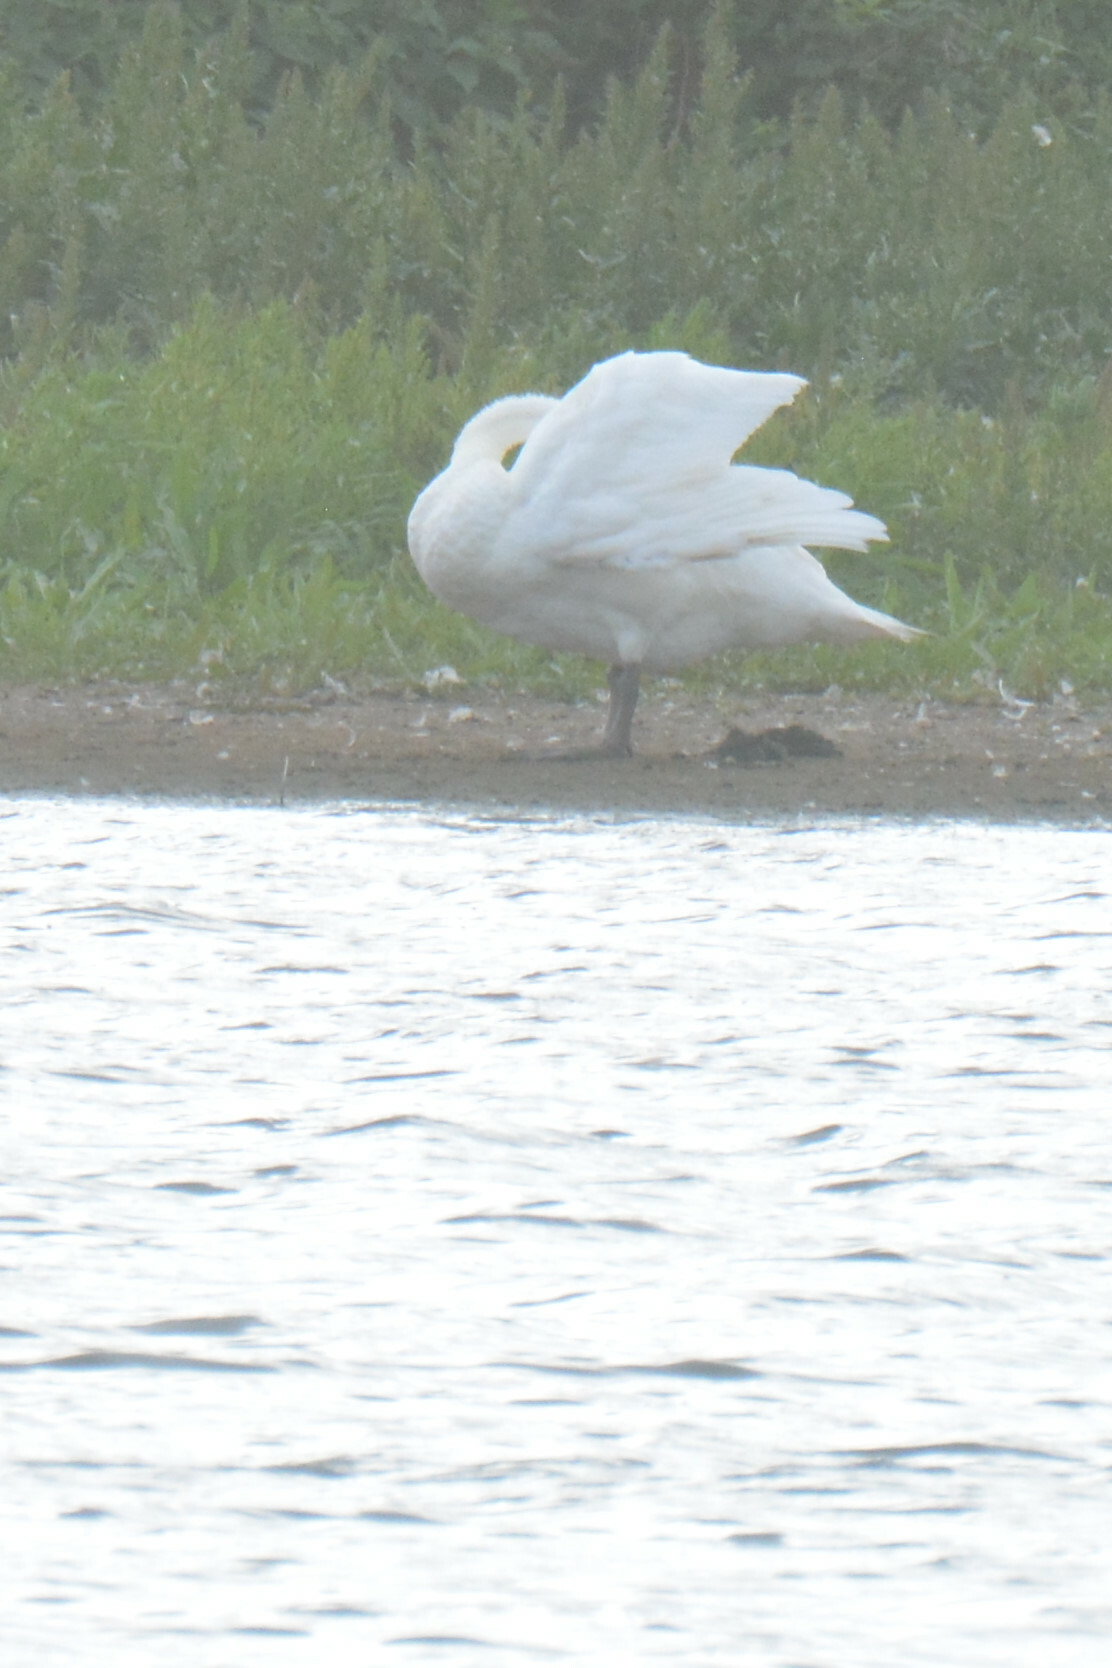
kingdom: Animalia
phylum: Chordata
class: Aves
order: Anseriformes
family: Anatidae
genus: Cygnus
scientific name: Cygnus olor
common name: Mute swan
